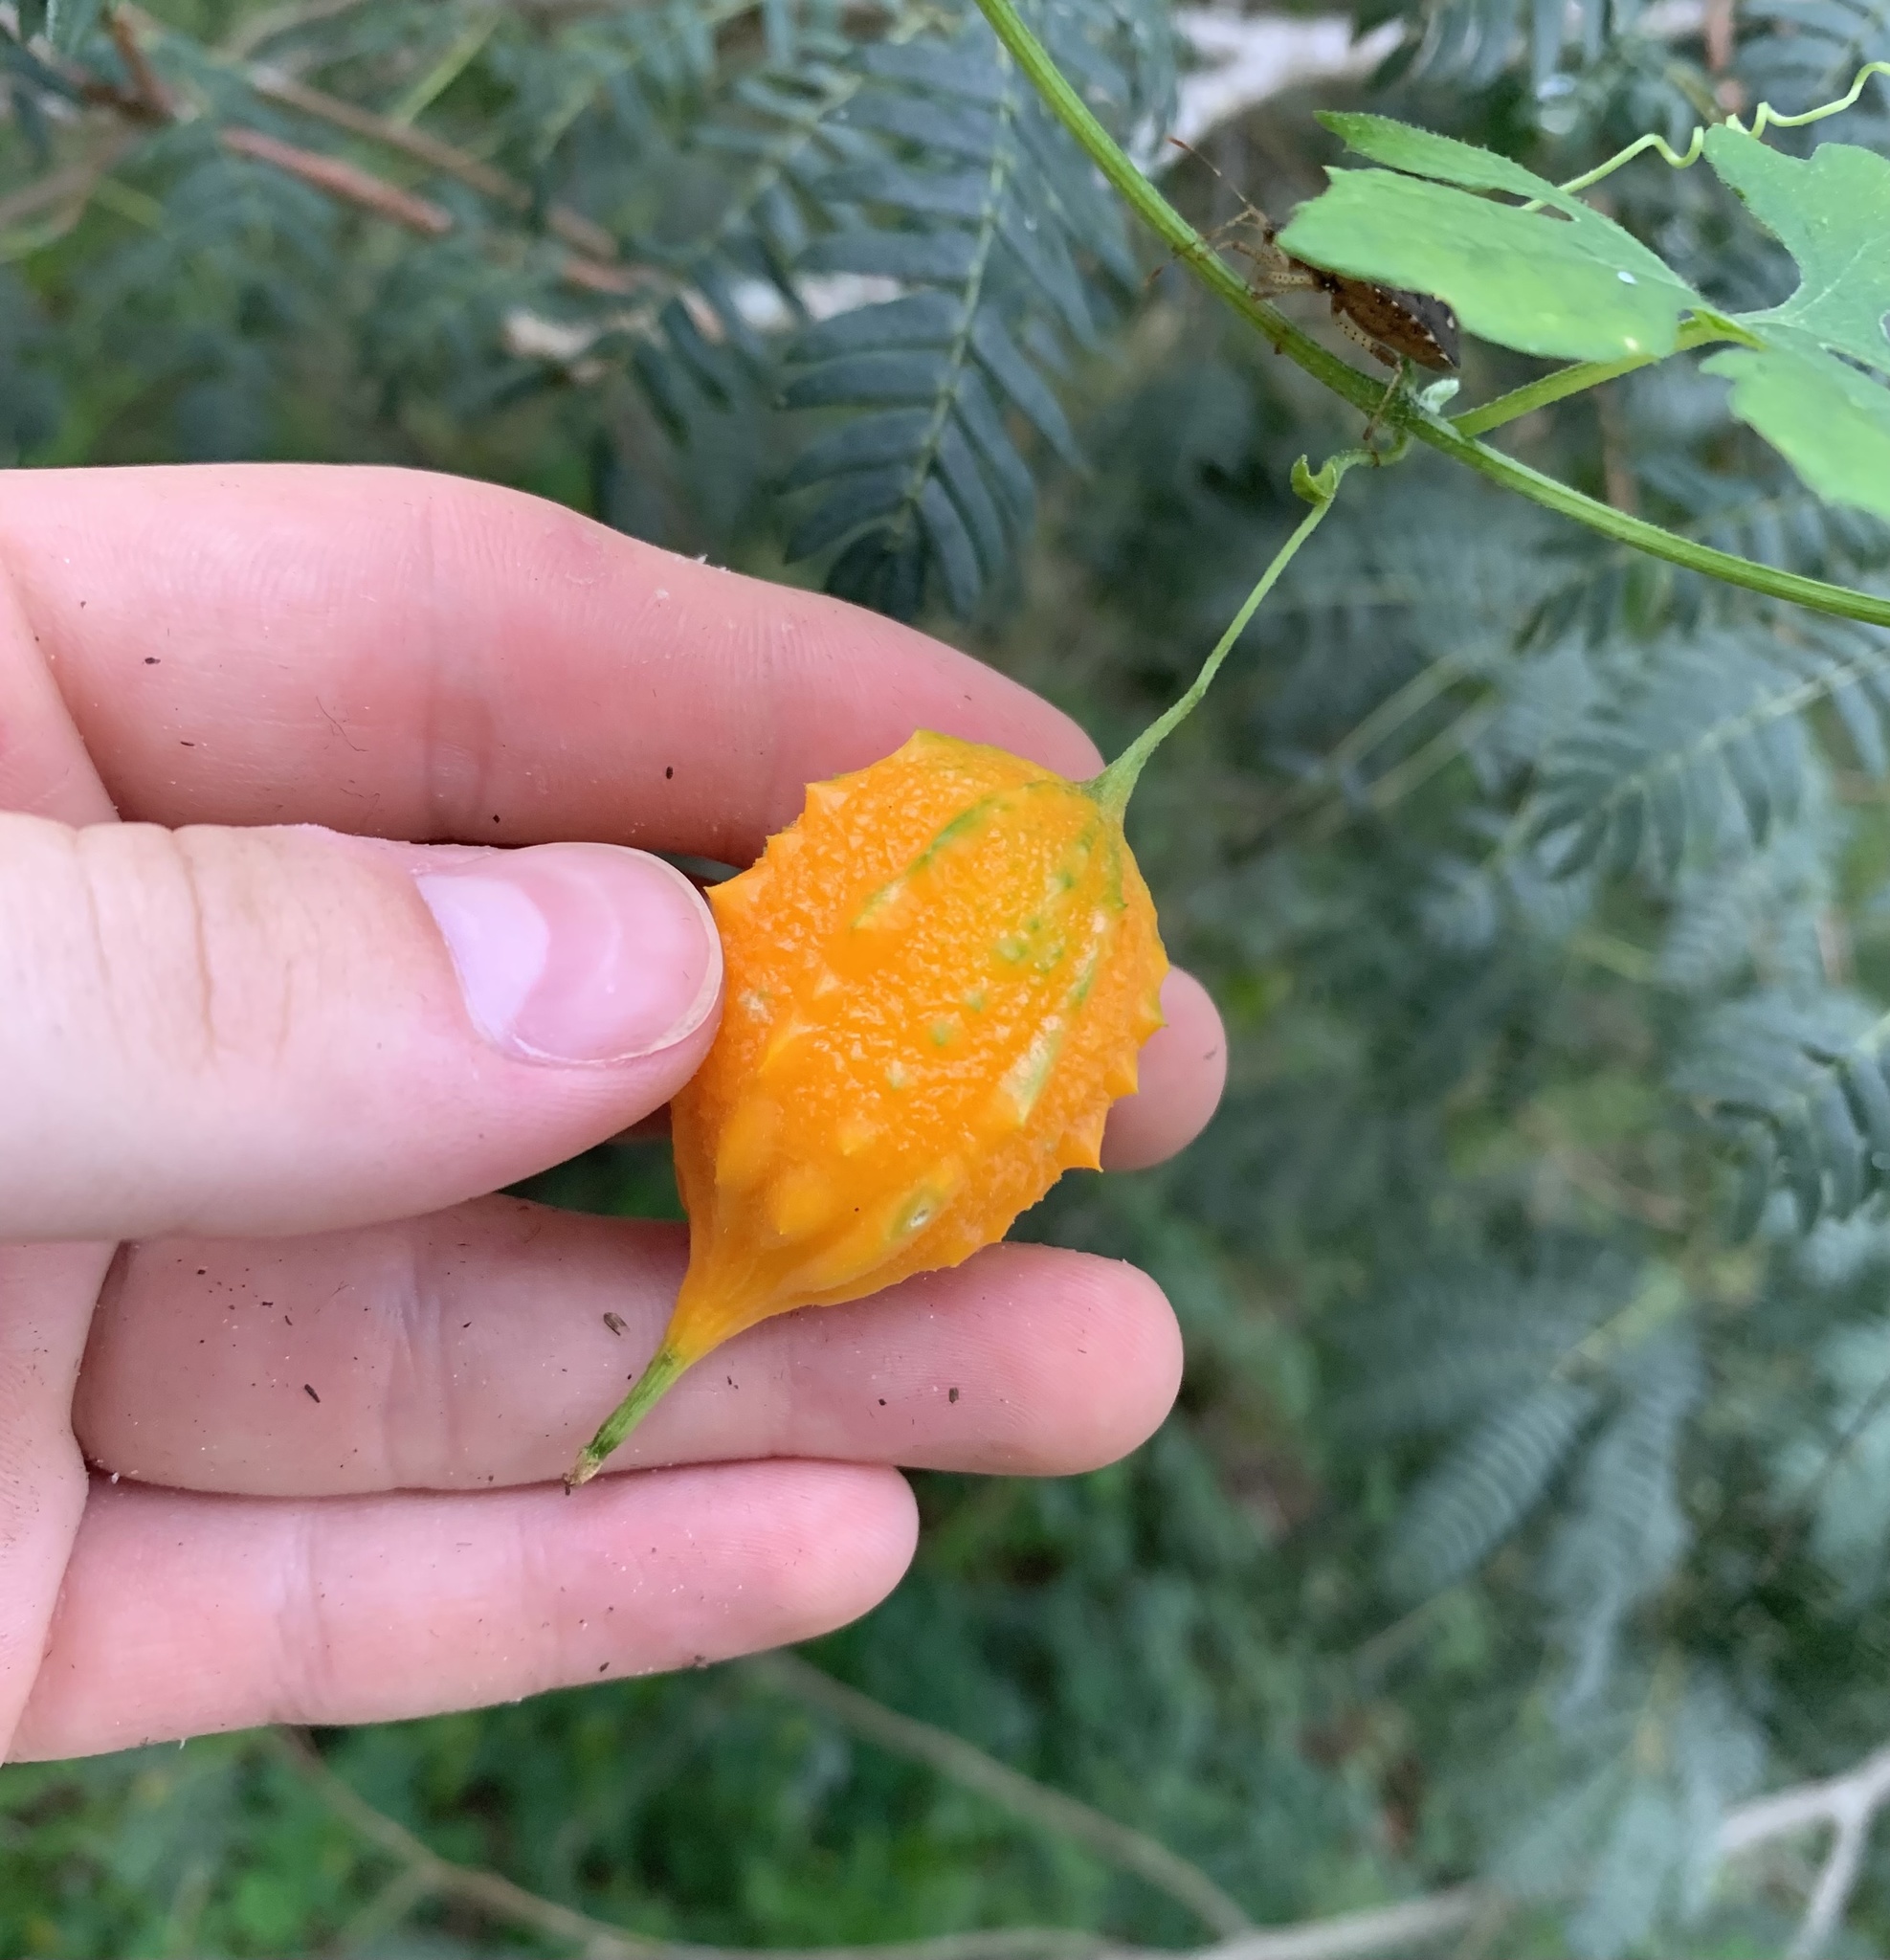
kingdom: Plantae
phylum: Tracheophyta
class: Magnoliopsida
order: Cucurbitales
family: Cucurbitaceae
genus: Momordica
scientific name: Momordica charantia
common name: Balsampear
